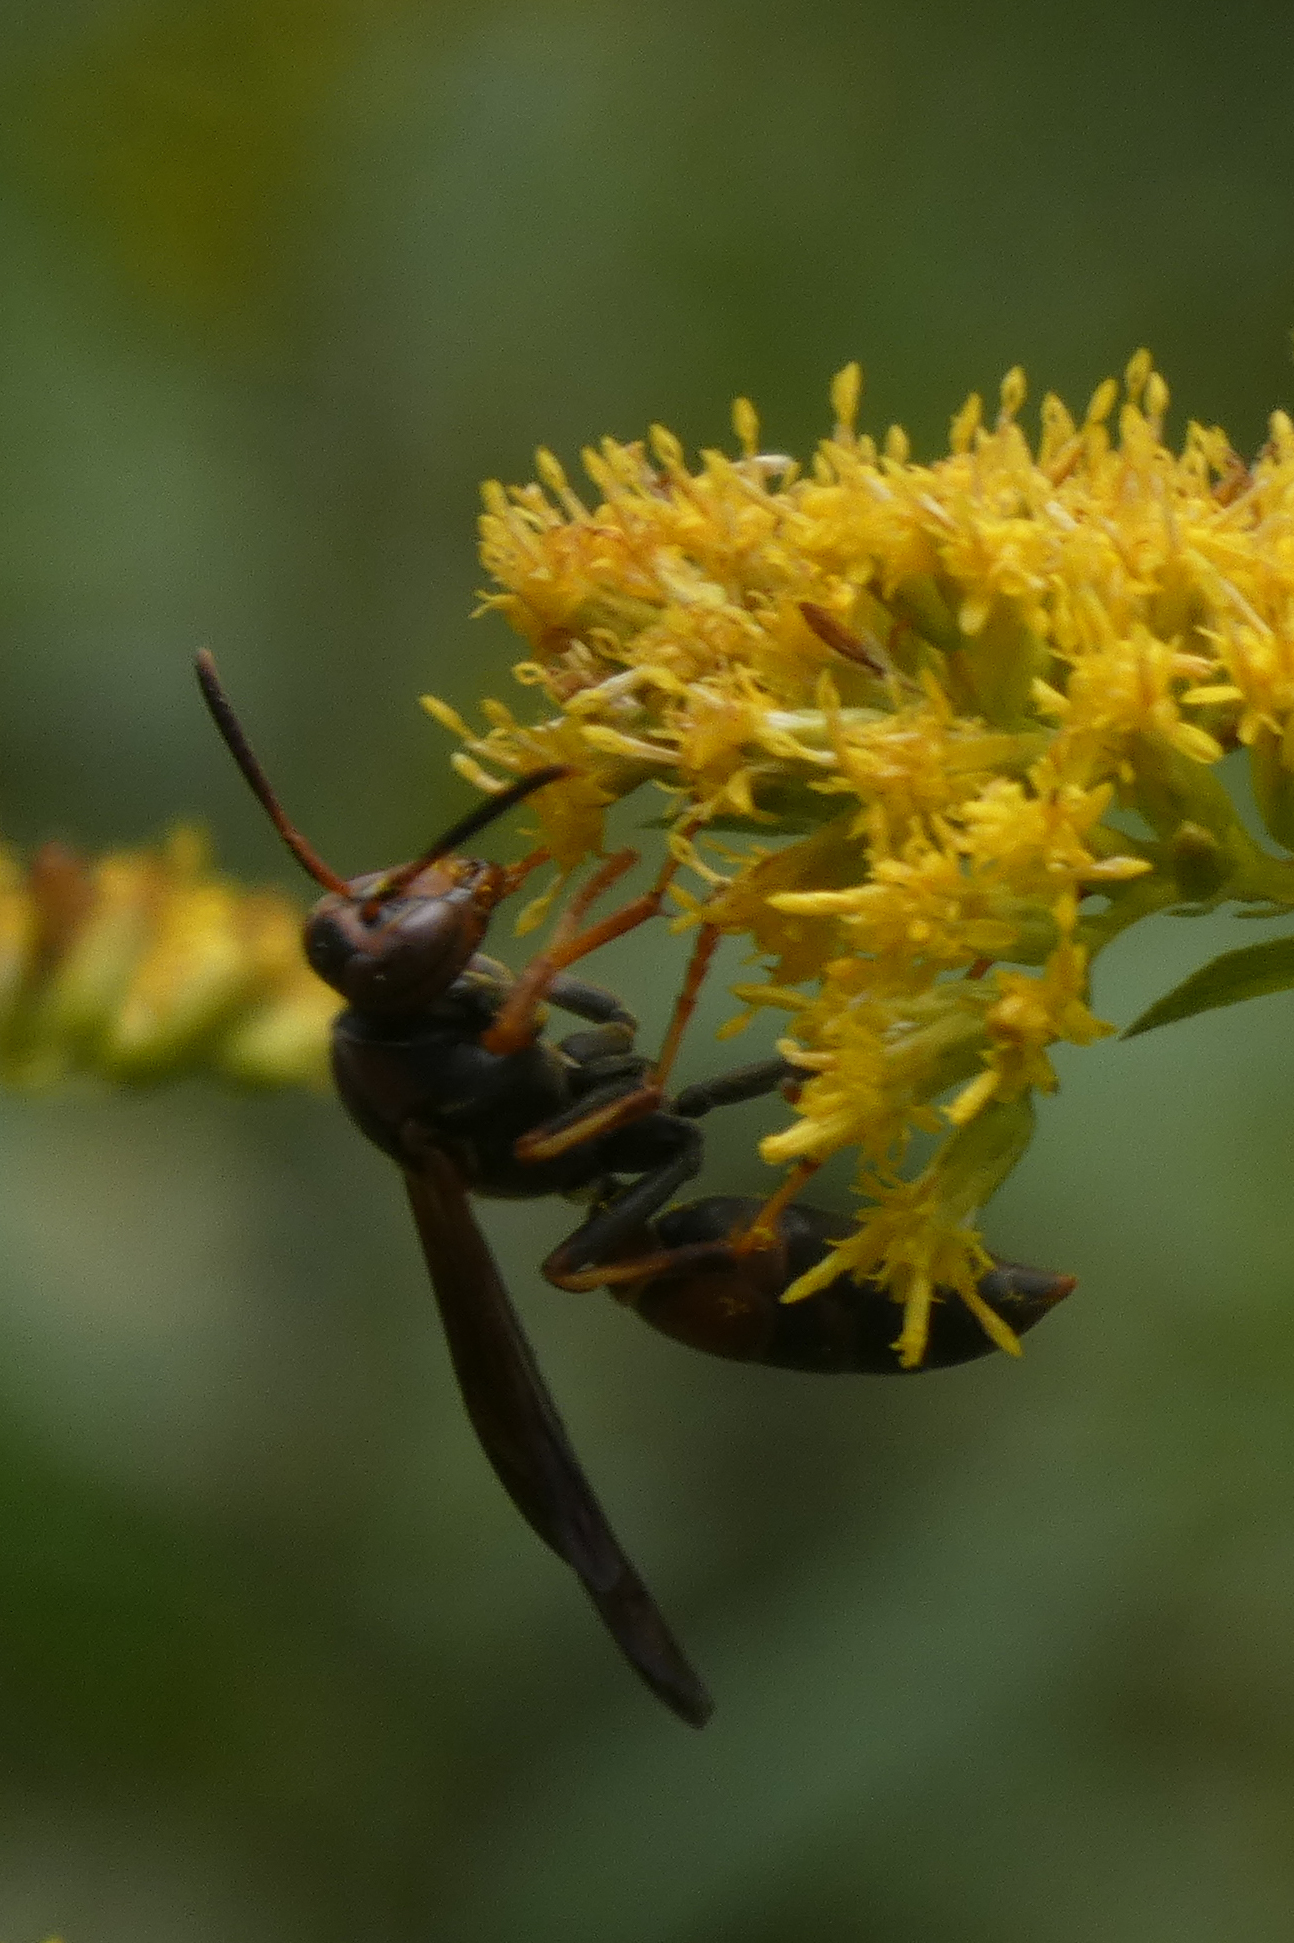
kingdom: Animalia
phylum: Arthropoda
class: Insecta
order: Hymenoptera
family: Vespidae
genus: Fuscopolistes
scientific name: Fuscopolistes
